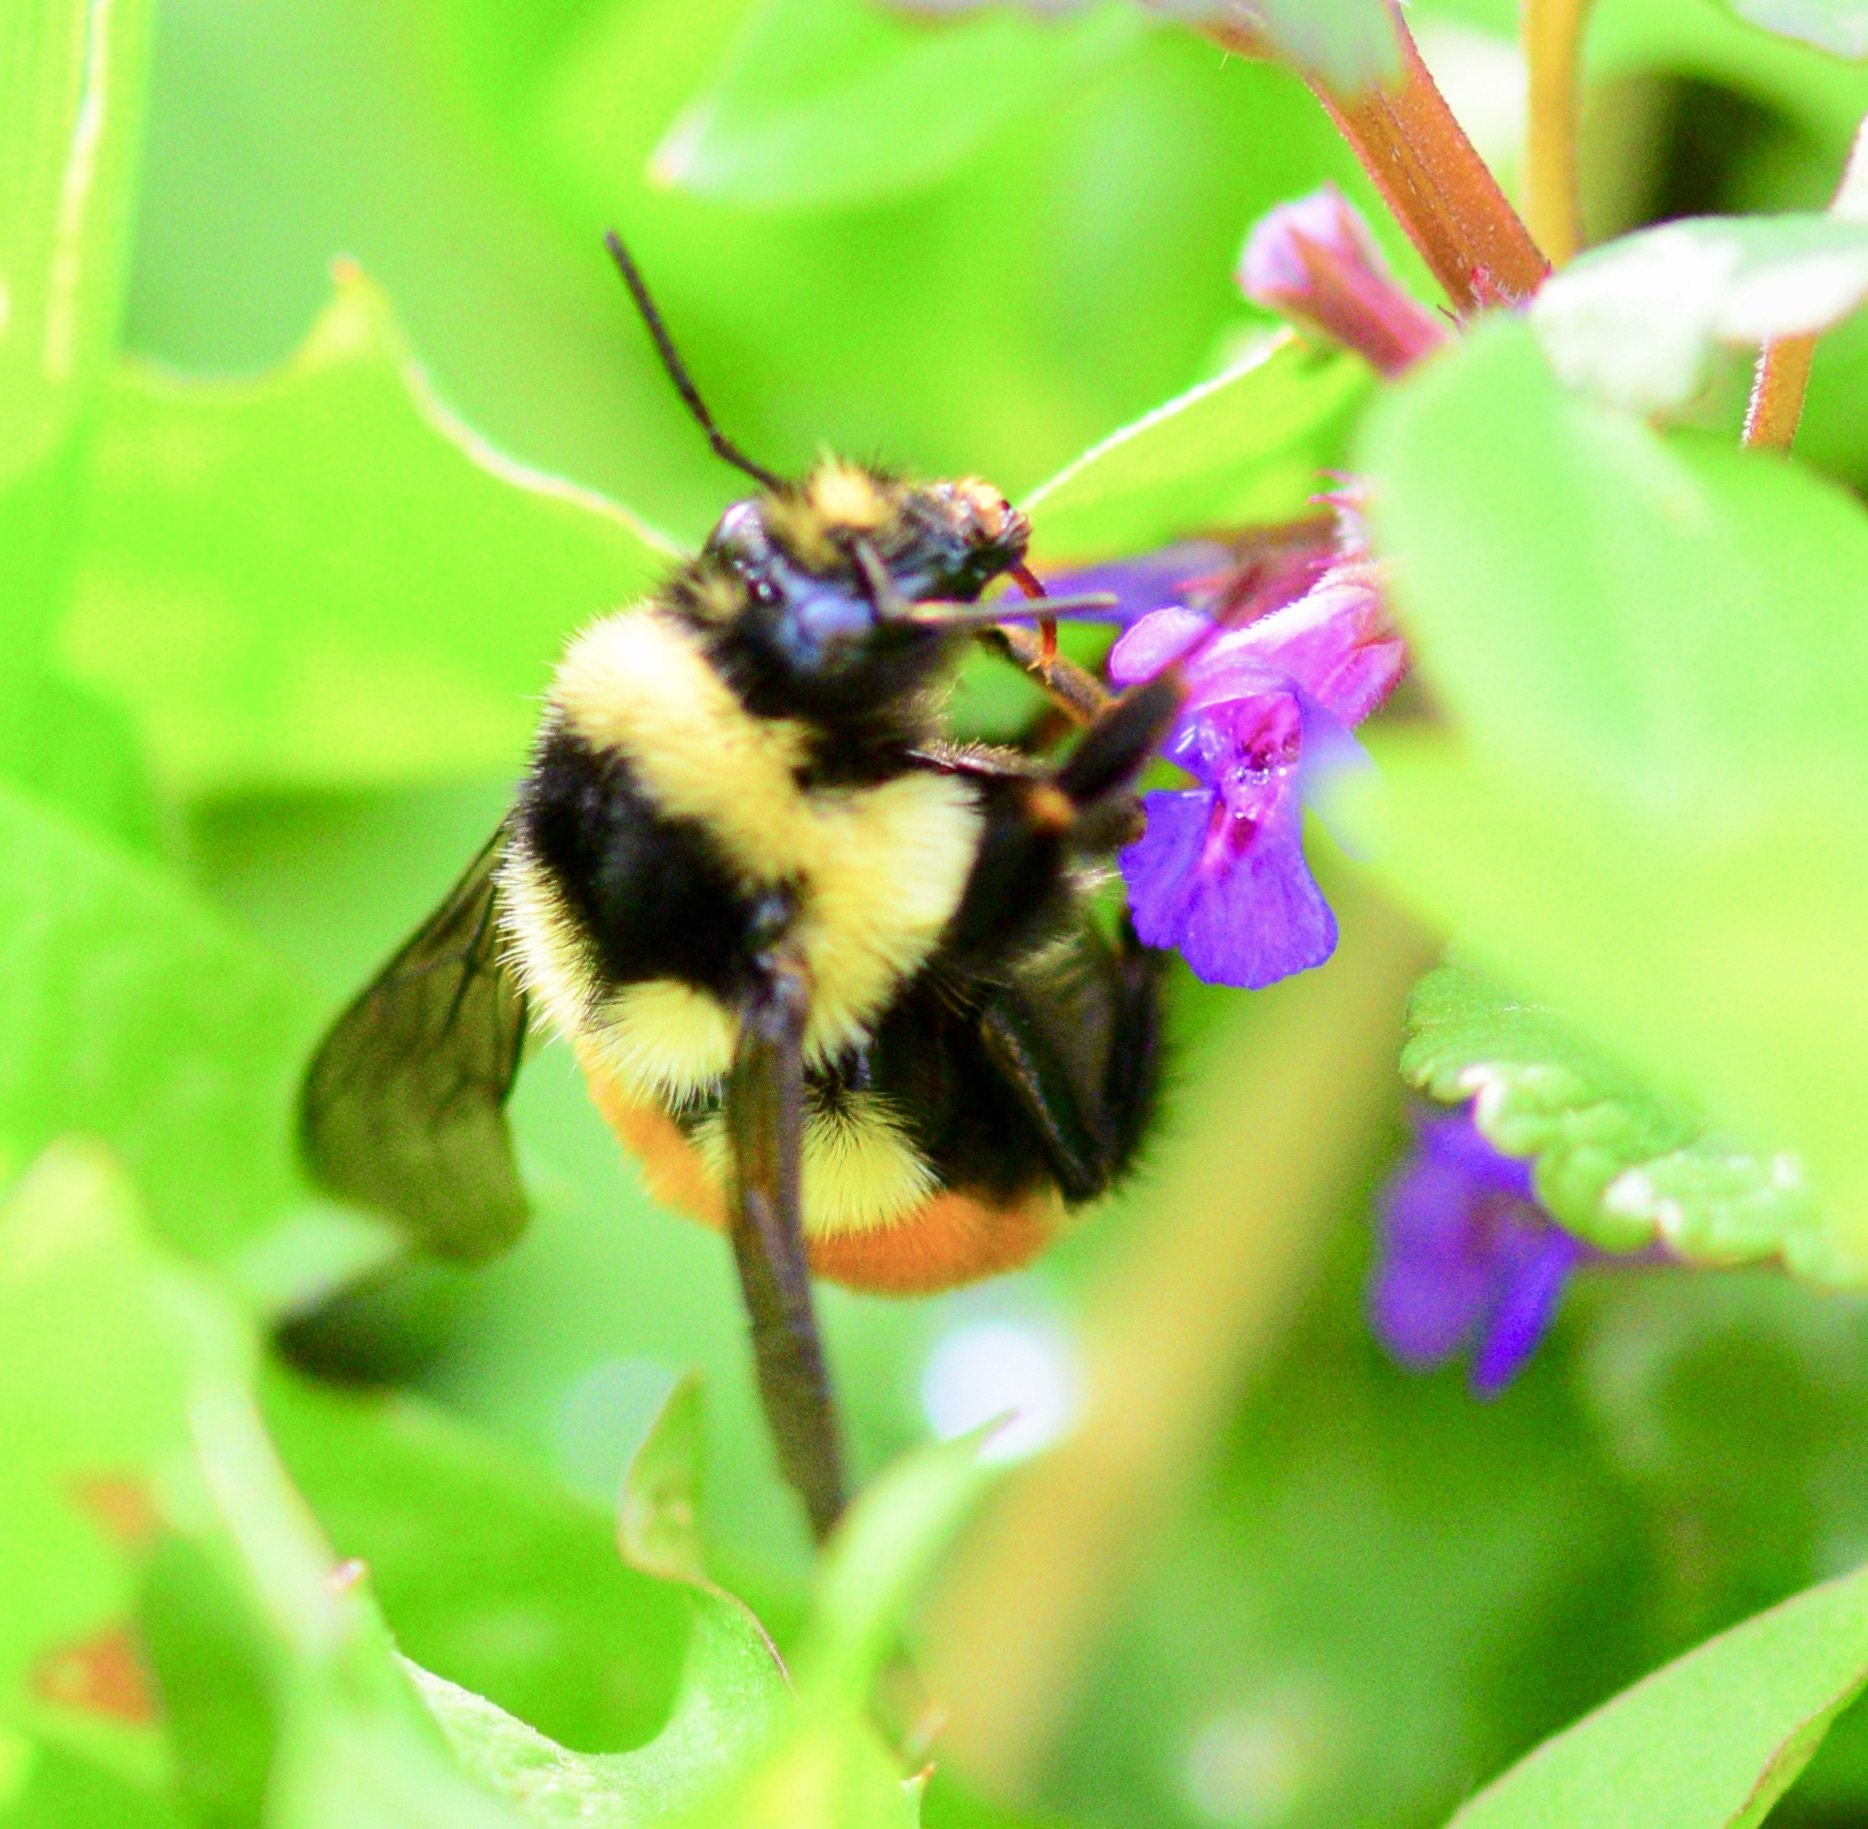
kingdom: Animalia
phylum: Arthropoda
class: Insecta
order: Hymenoptera
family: Apidae
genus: Bombus
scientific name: Bombus ternarius
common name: Tri-colored bumble bee
